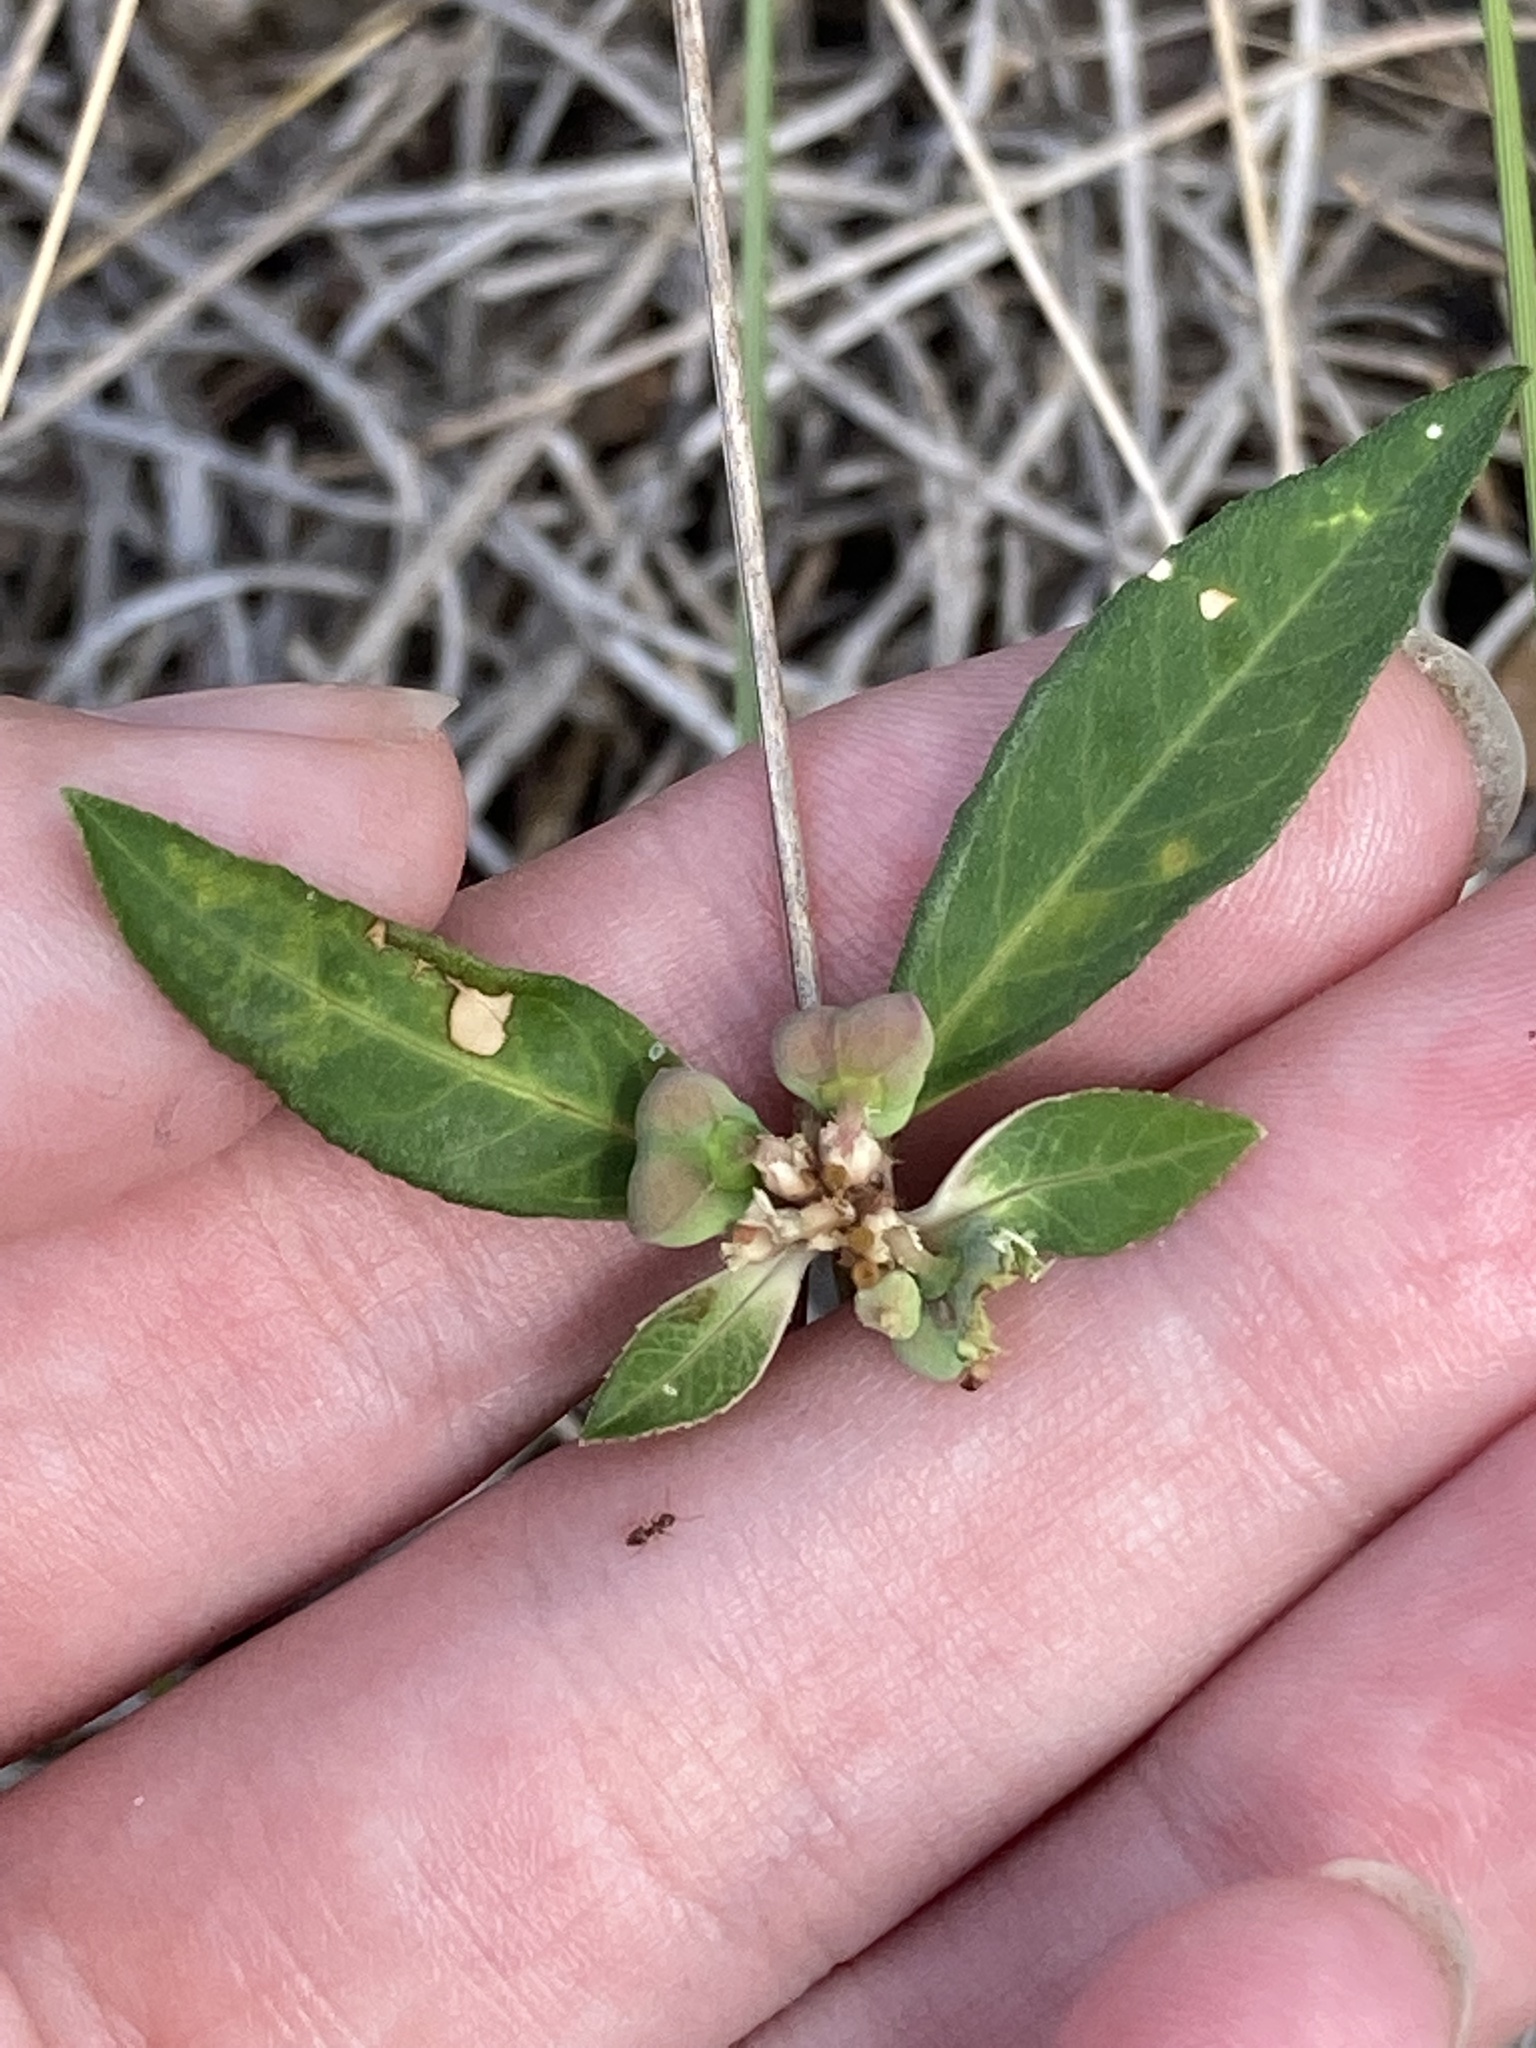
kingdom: Plantae
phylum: Tracheophyta
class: Magnoliopsida
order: Malpighiales
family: Euphorbiaceae
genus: Euphorbia
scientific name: Euphorbia heterophylla
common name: Mexican fireplant
